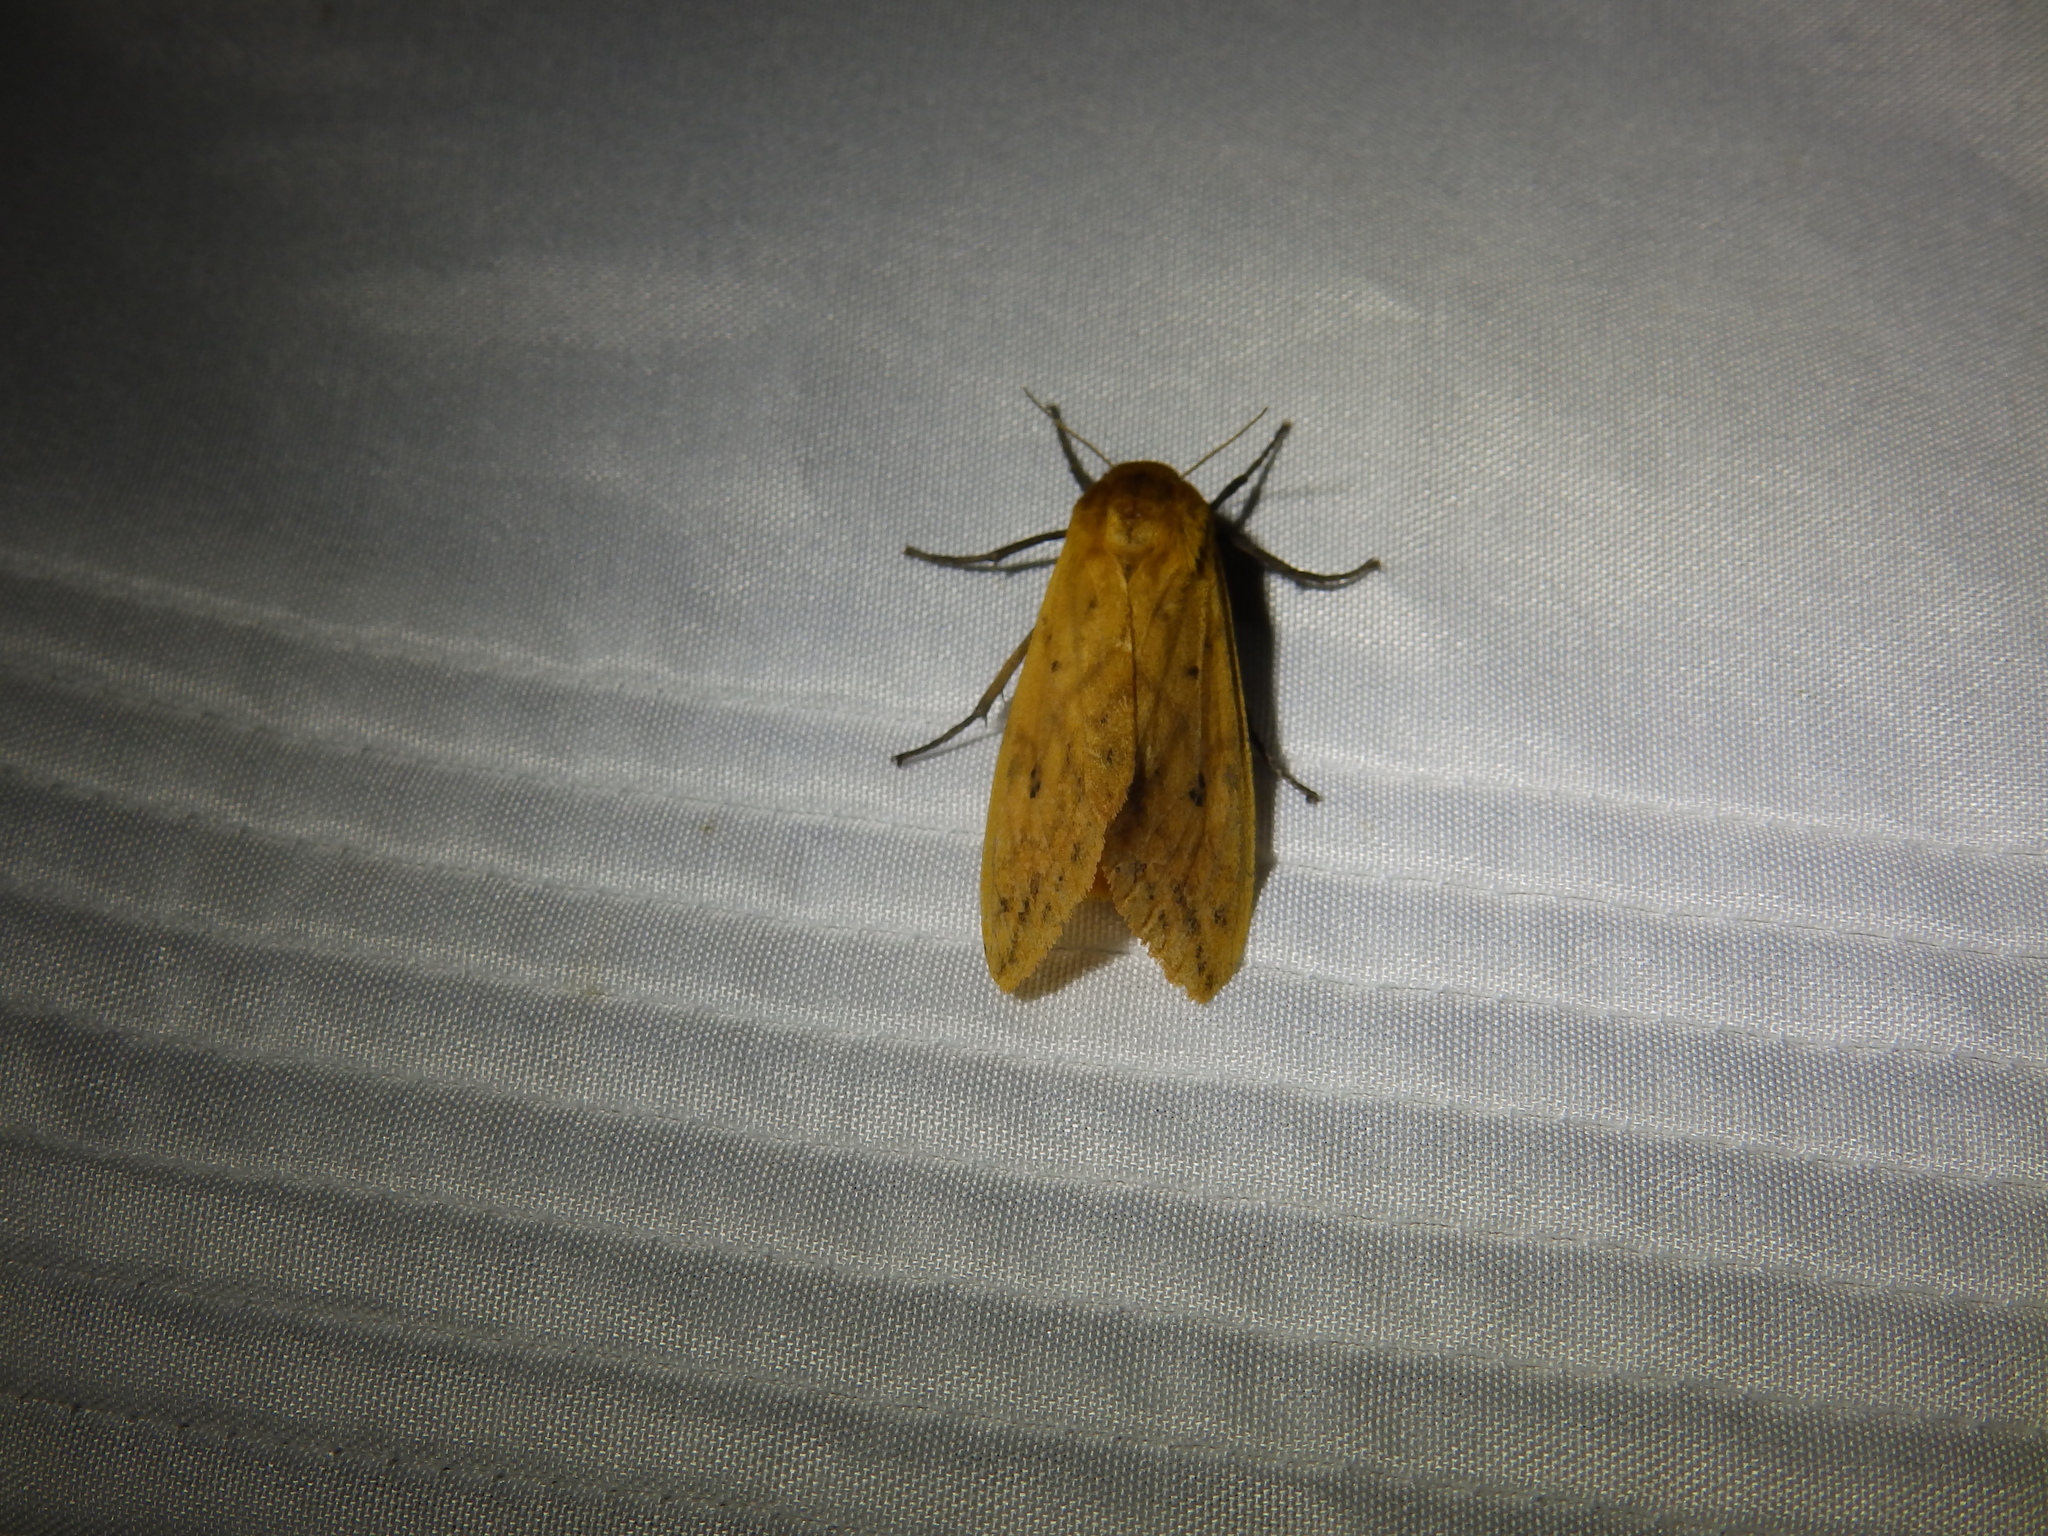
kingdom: Animalia
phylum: Arthropoda
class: Insecta
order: Lepidoptera
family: Erebidae
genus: Pyrrharctia
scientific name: Pyrrharctia isabella
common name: Isabella tiger moth
